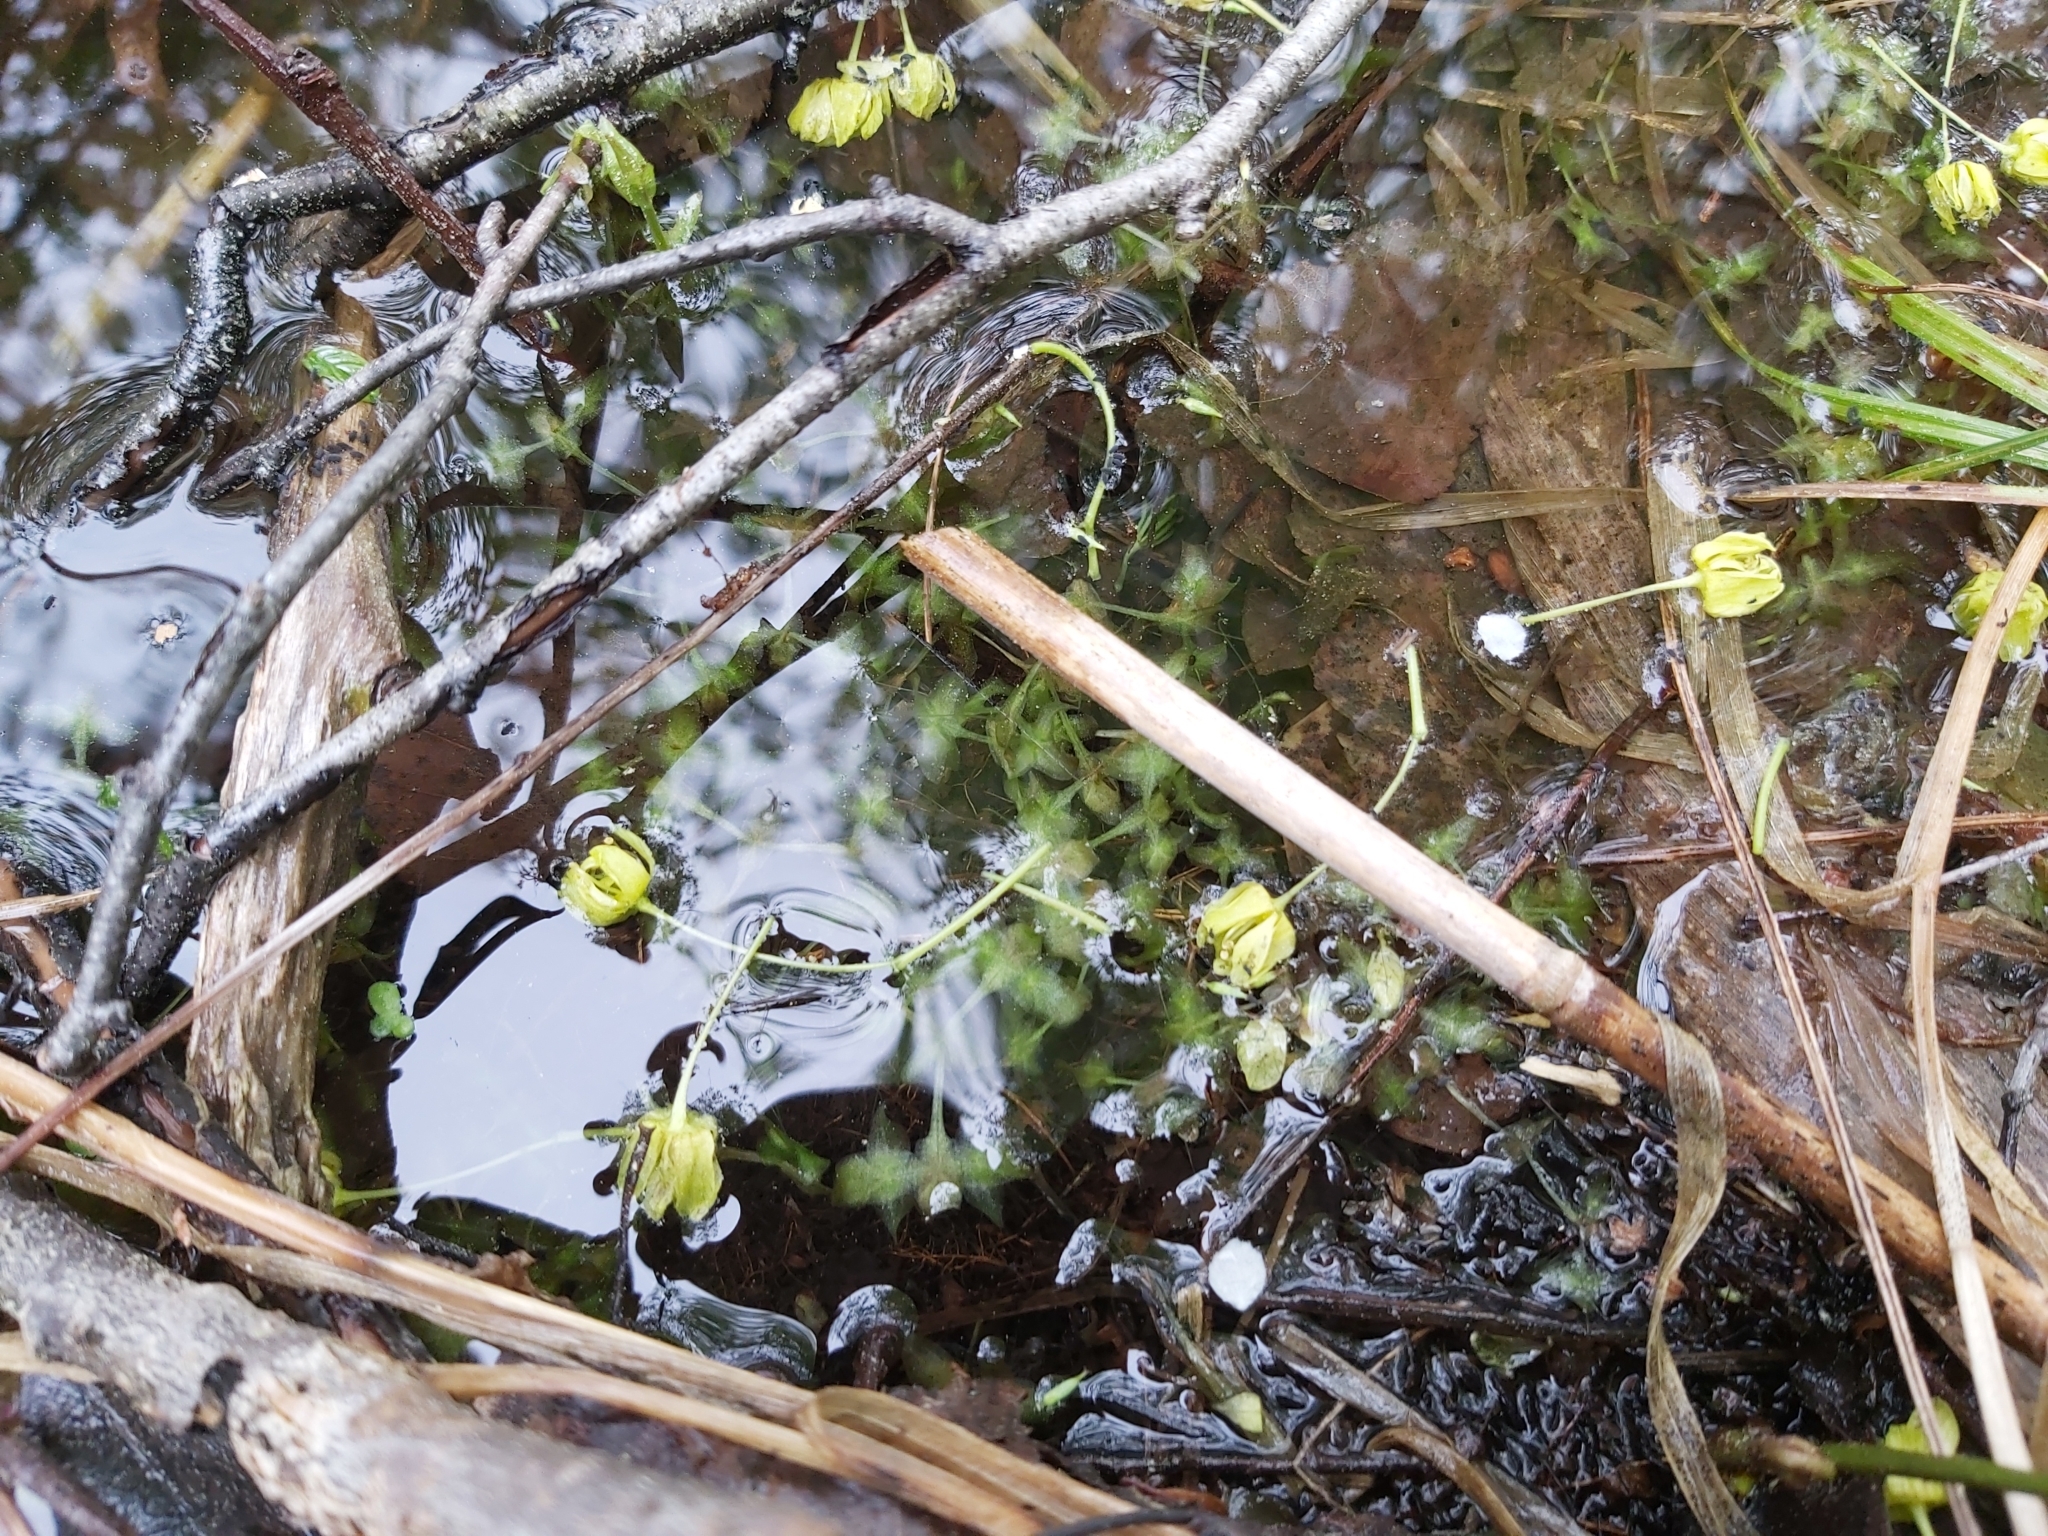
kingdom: Plantae
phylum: Tracheophyta
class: Liliopsida
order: Alismatales
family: Araceae
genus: Lemna
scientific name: Lemna trisulca
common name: Ivy-leaved duckweed
